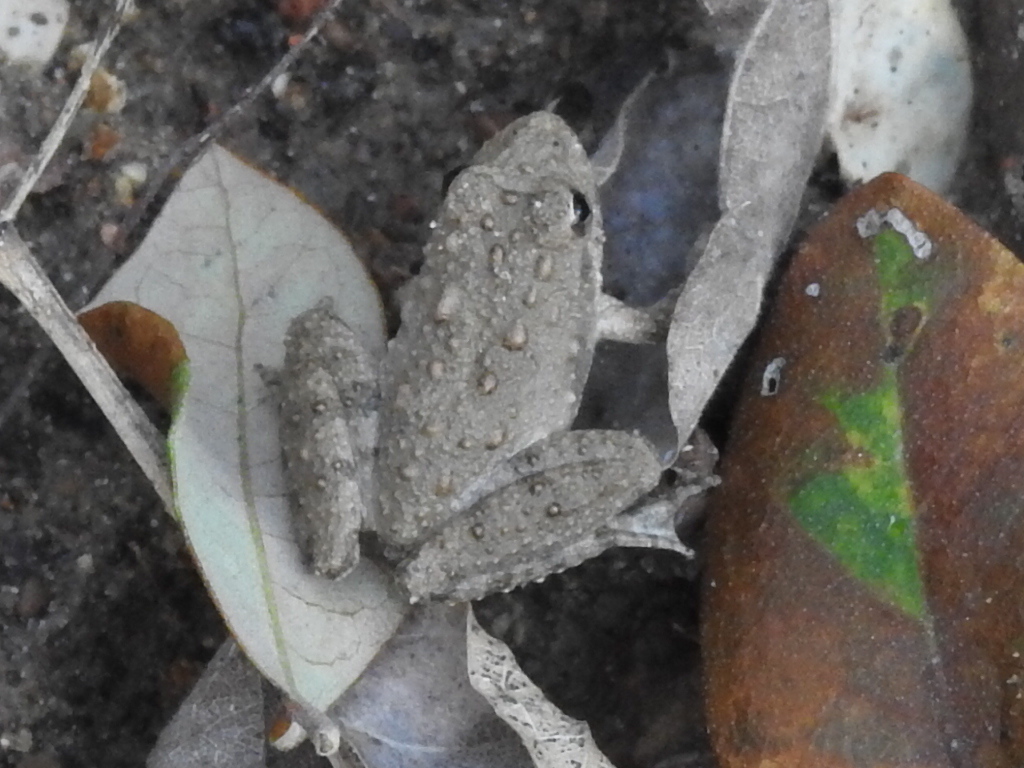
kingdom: Animalia
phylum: Chordata
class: Amphibia
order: Anura
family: Hylidae
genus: Acris
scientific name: Acris blanchardi
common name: Blanchard's cricket frog
